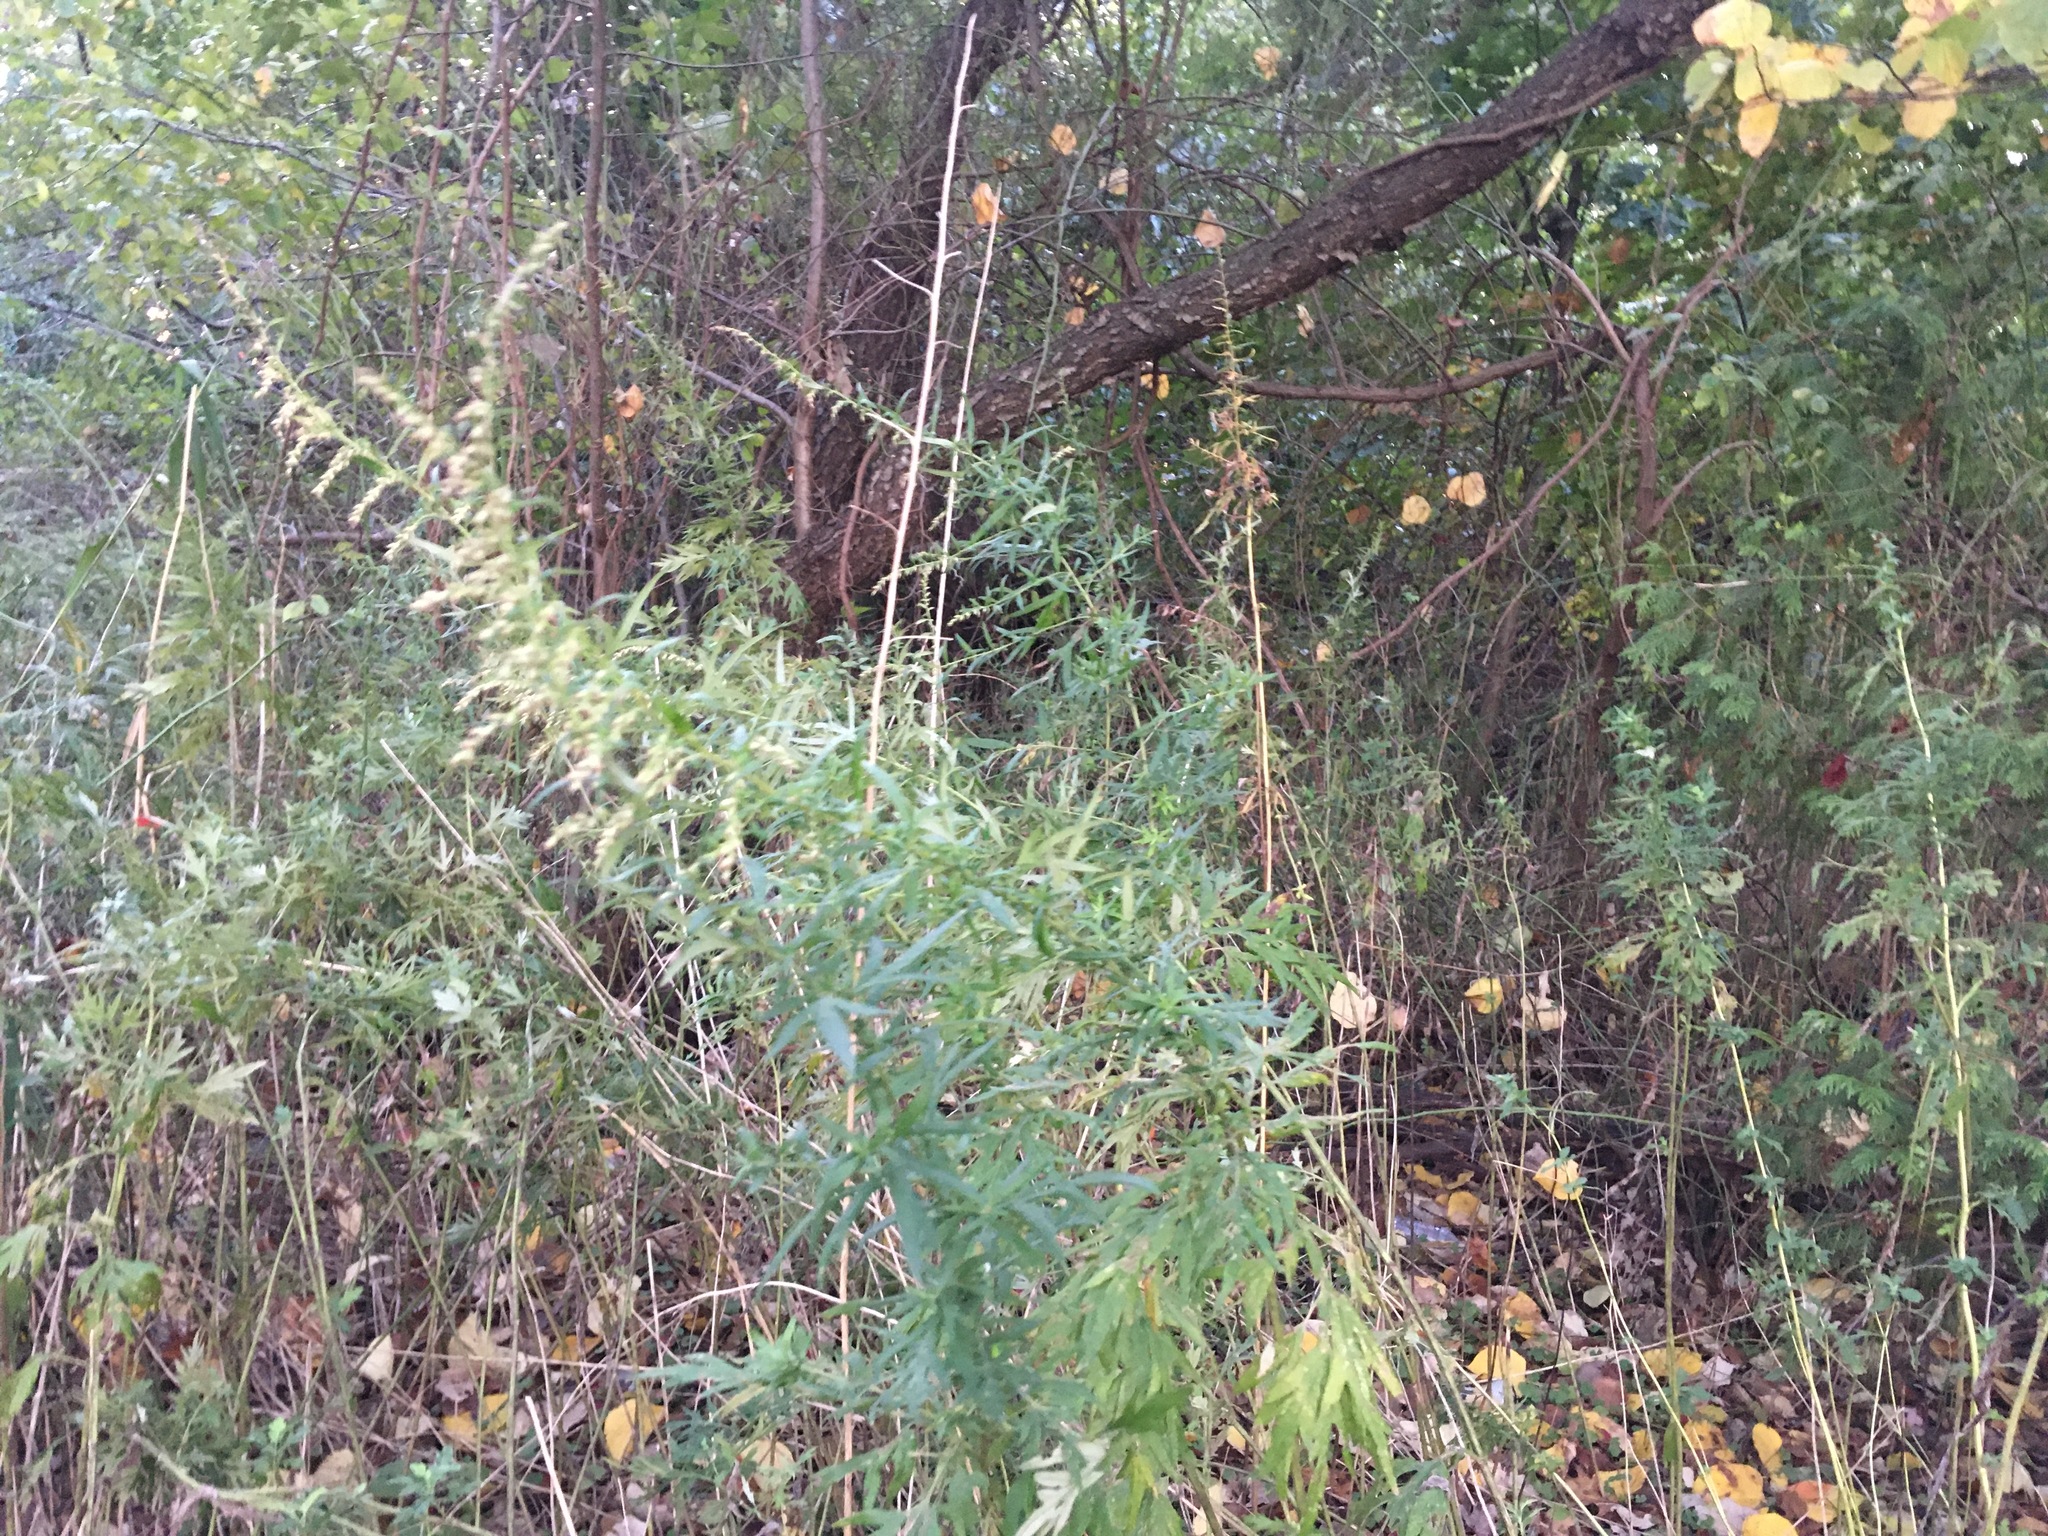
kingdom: Plantae
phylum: Tracheophyta
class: Magnoliopsida
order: Asterales
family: Asteraceae
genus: Artemisia
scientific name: Artemisia vulgaris
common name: Mugwort
